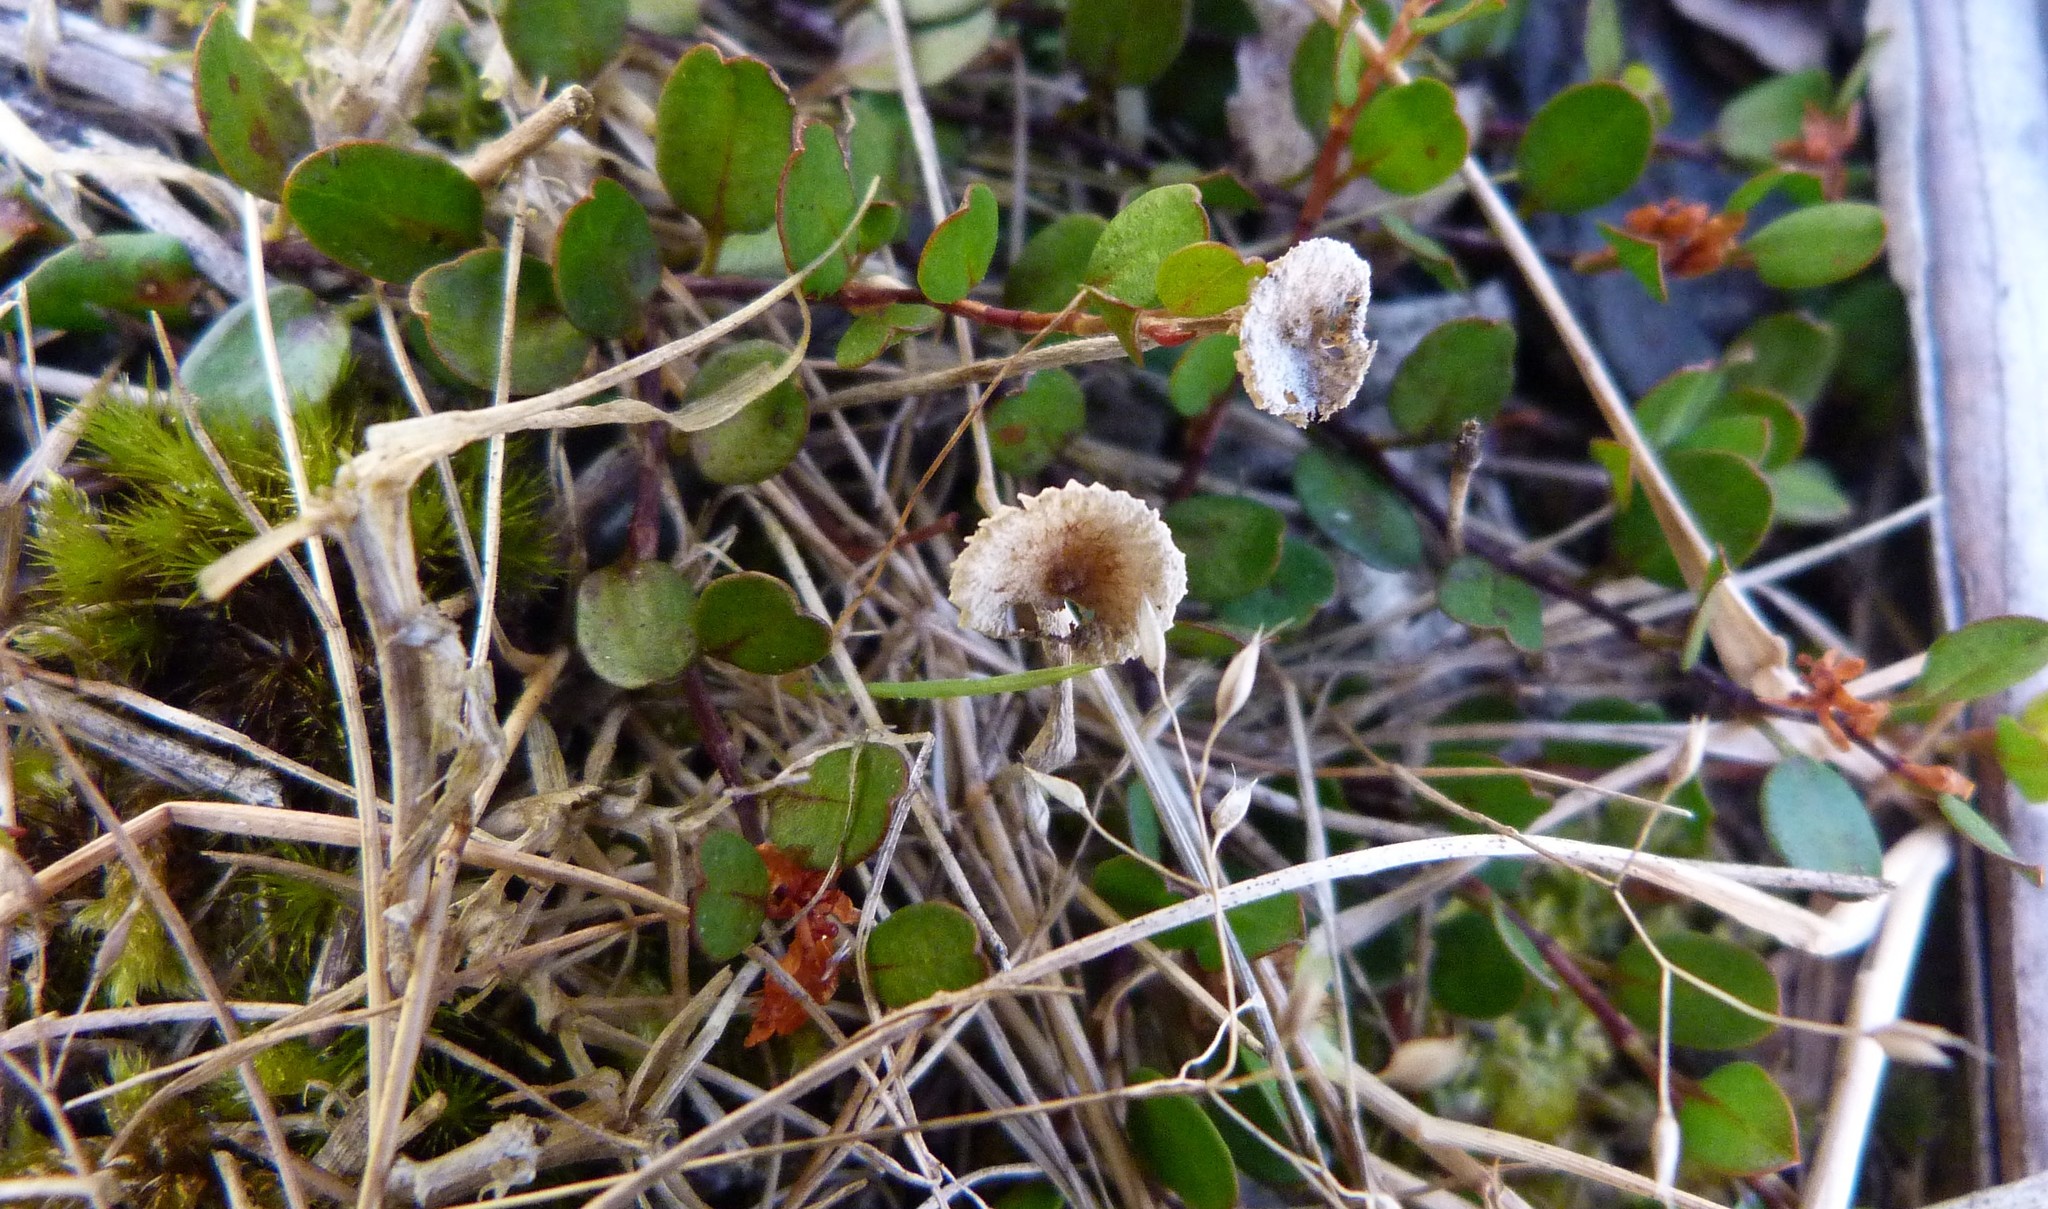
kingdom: Fungi
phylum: Basidiomycota
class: Agaricomycetes
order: Agaricales
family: Marasmiaceae
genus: Crinipellis
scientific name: Crinipellis scabella
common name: Hairy parachute
